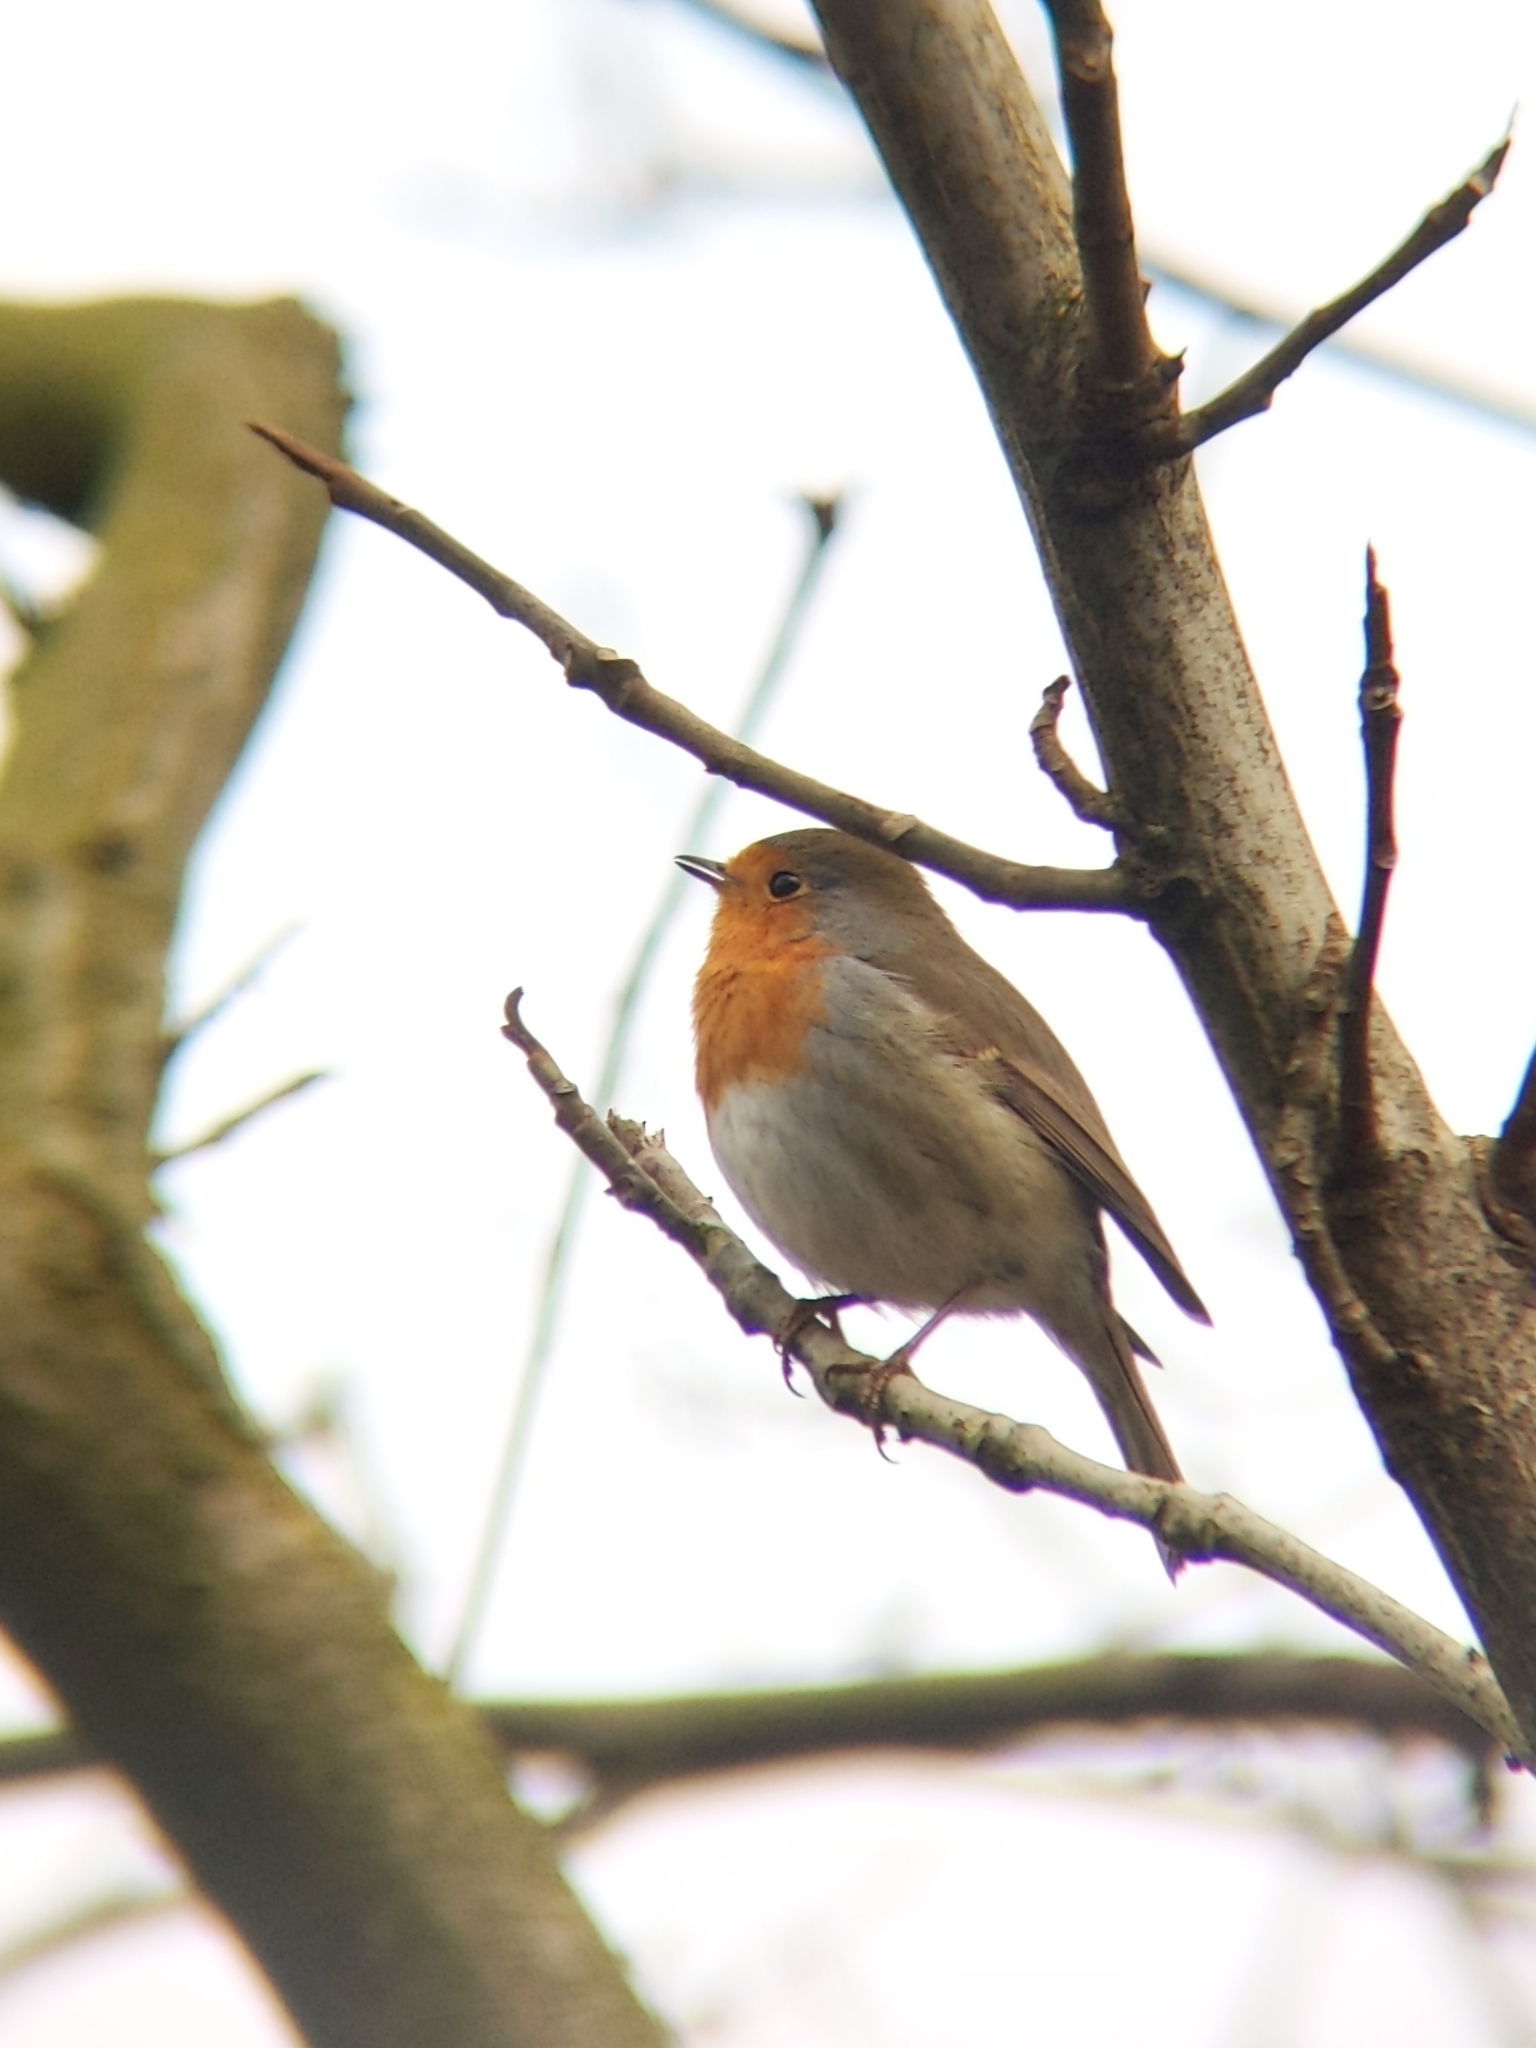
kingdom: Animalia
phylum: Chordata
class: Aves
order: Passeriformes
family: Muscicapidae
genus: Erithacus
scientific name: Erithacus rubecula
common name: European robin
